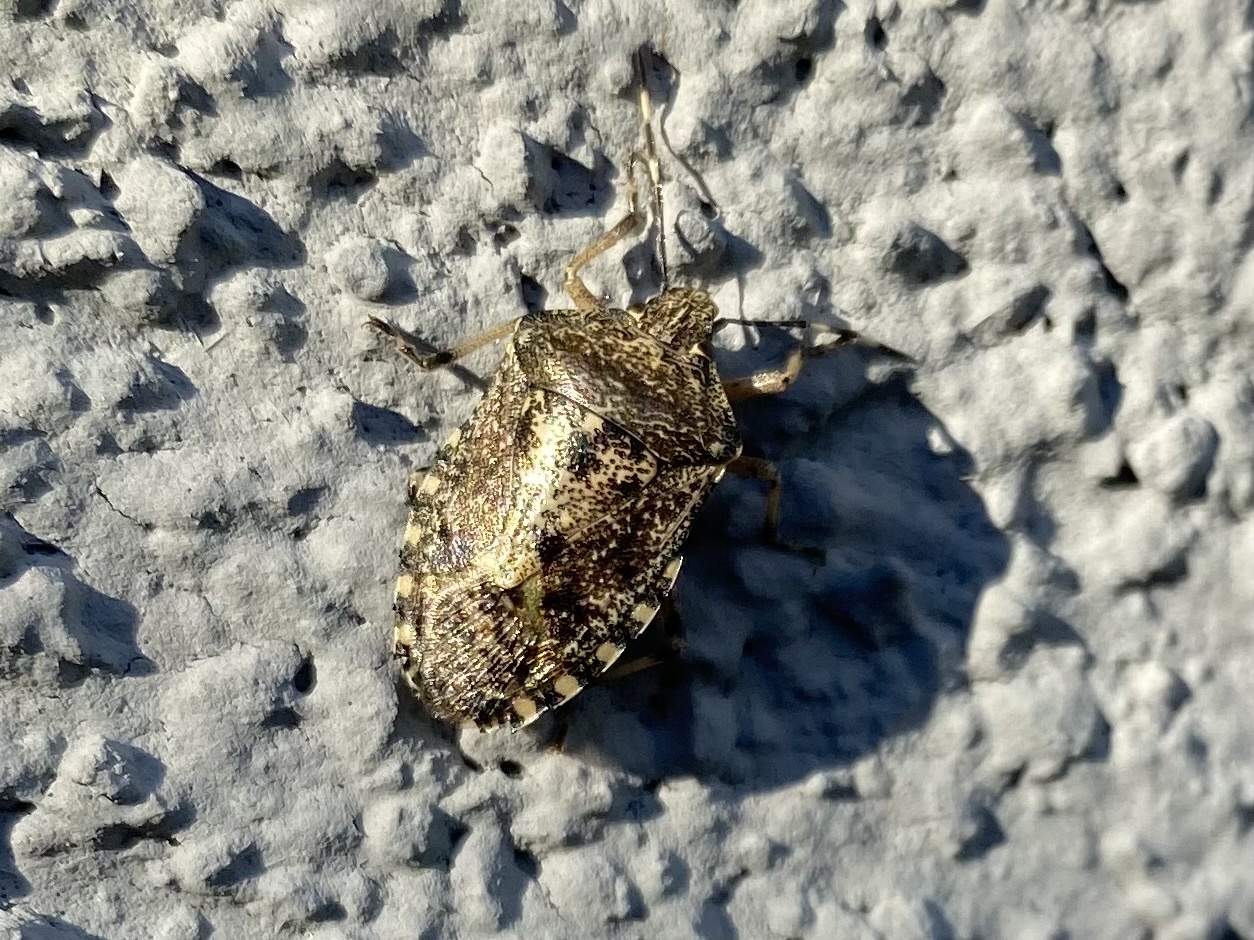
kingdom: Animalia
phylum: Arthropoda
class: Insecta
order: Hemiptera
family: Pentatomidae
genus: Rhaphigaster
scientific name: Rhaphigaster nebulosa
